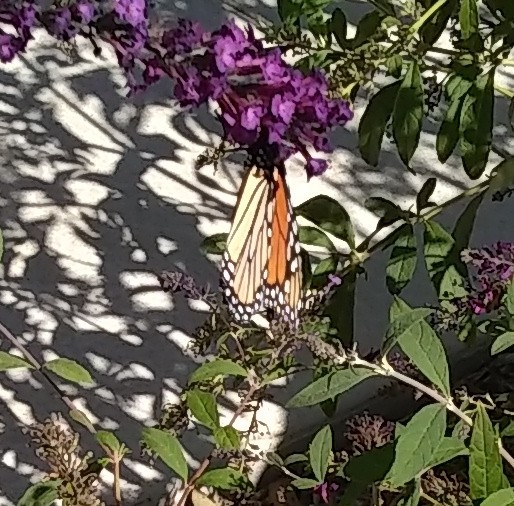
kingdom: Animalia
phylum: Arthropoda
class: Insecta
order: Lepidoptera
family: Nymphalidae
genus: Danaus
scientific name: Danaus plexippus
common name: Monarch
